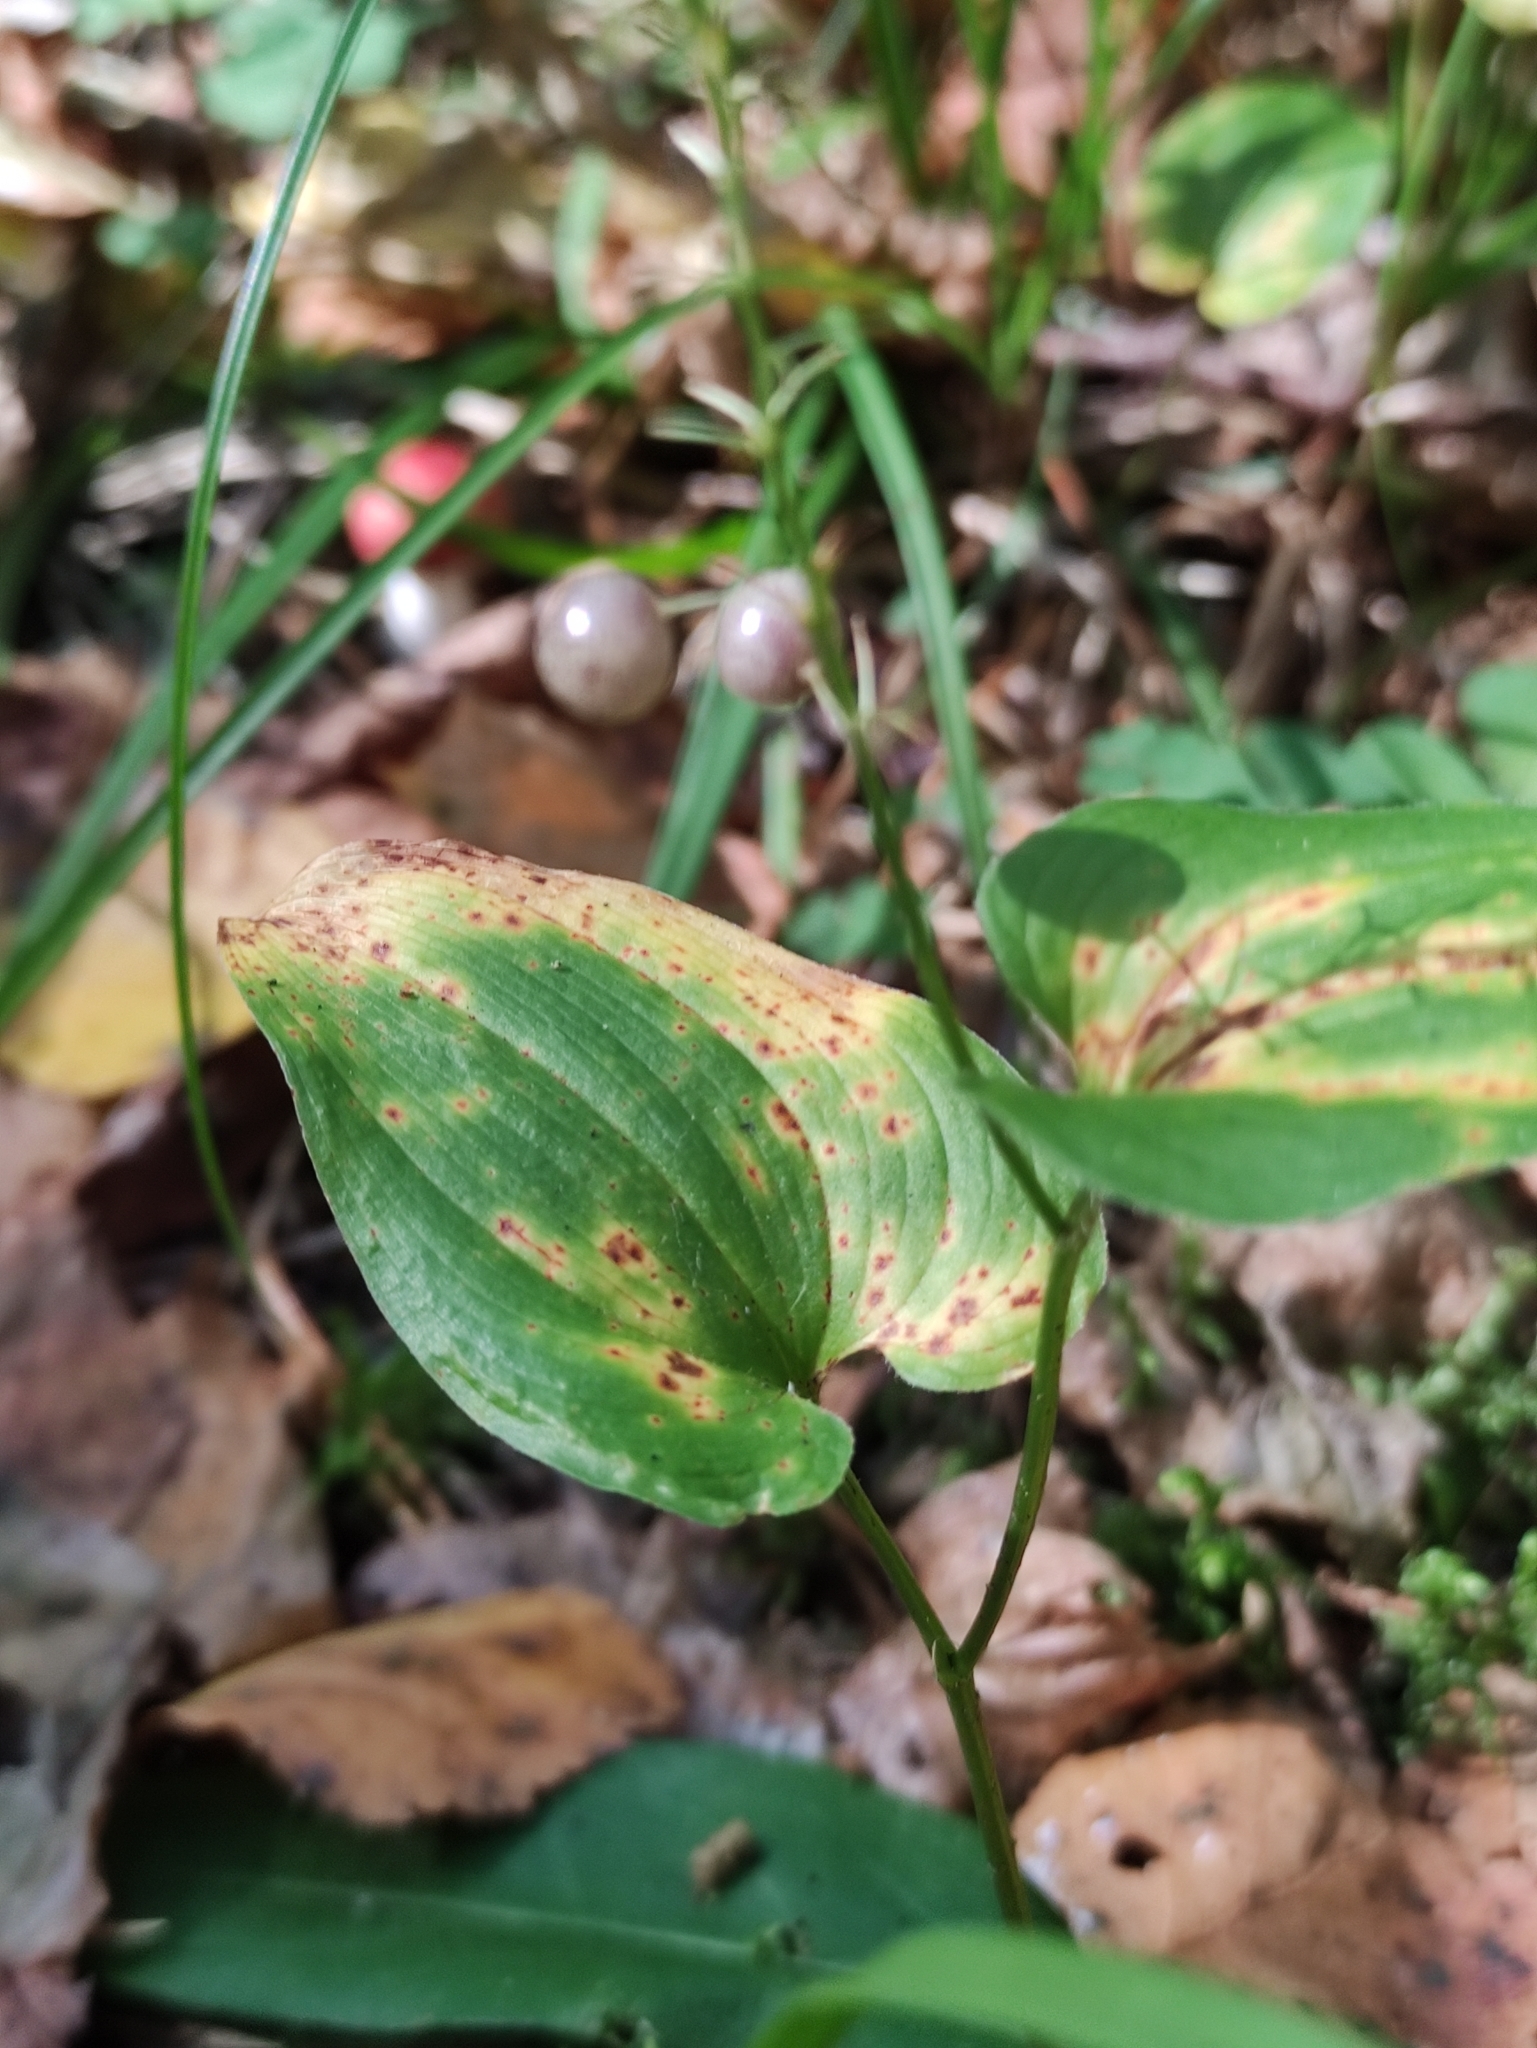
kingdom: Plantae
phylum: Tracheophyta
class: Liliopsida
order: Asparagales
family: Asparagaceae
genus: Maianthemum
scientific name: Maianthemum bifolium
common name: May lily
